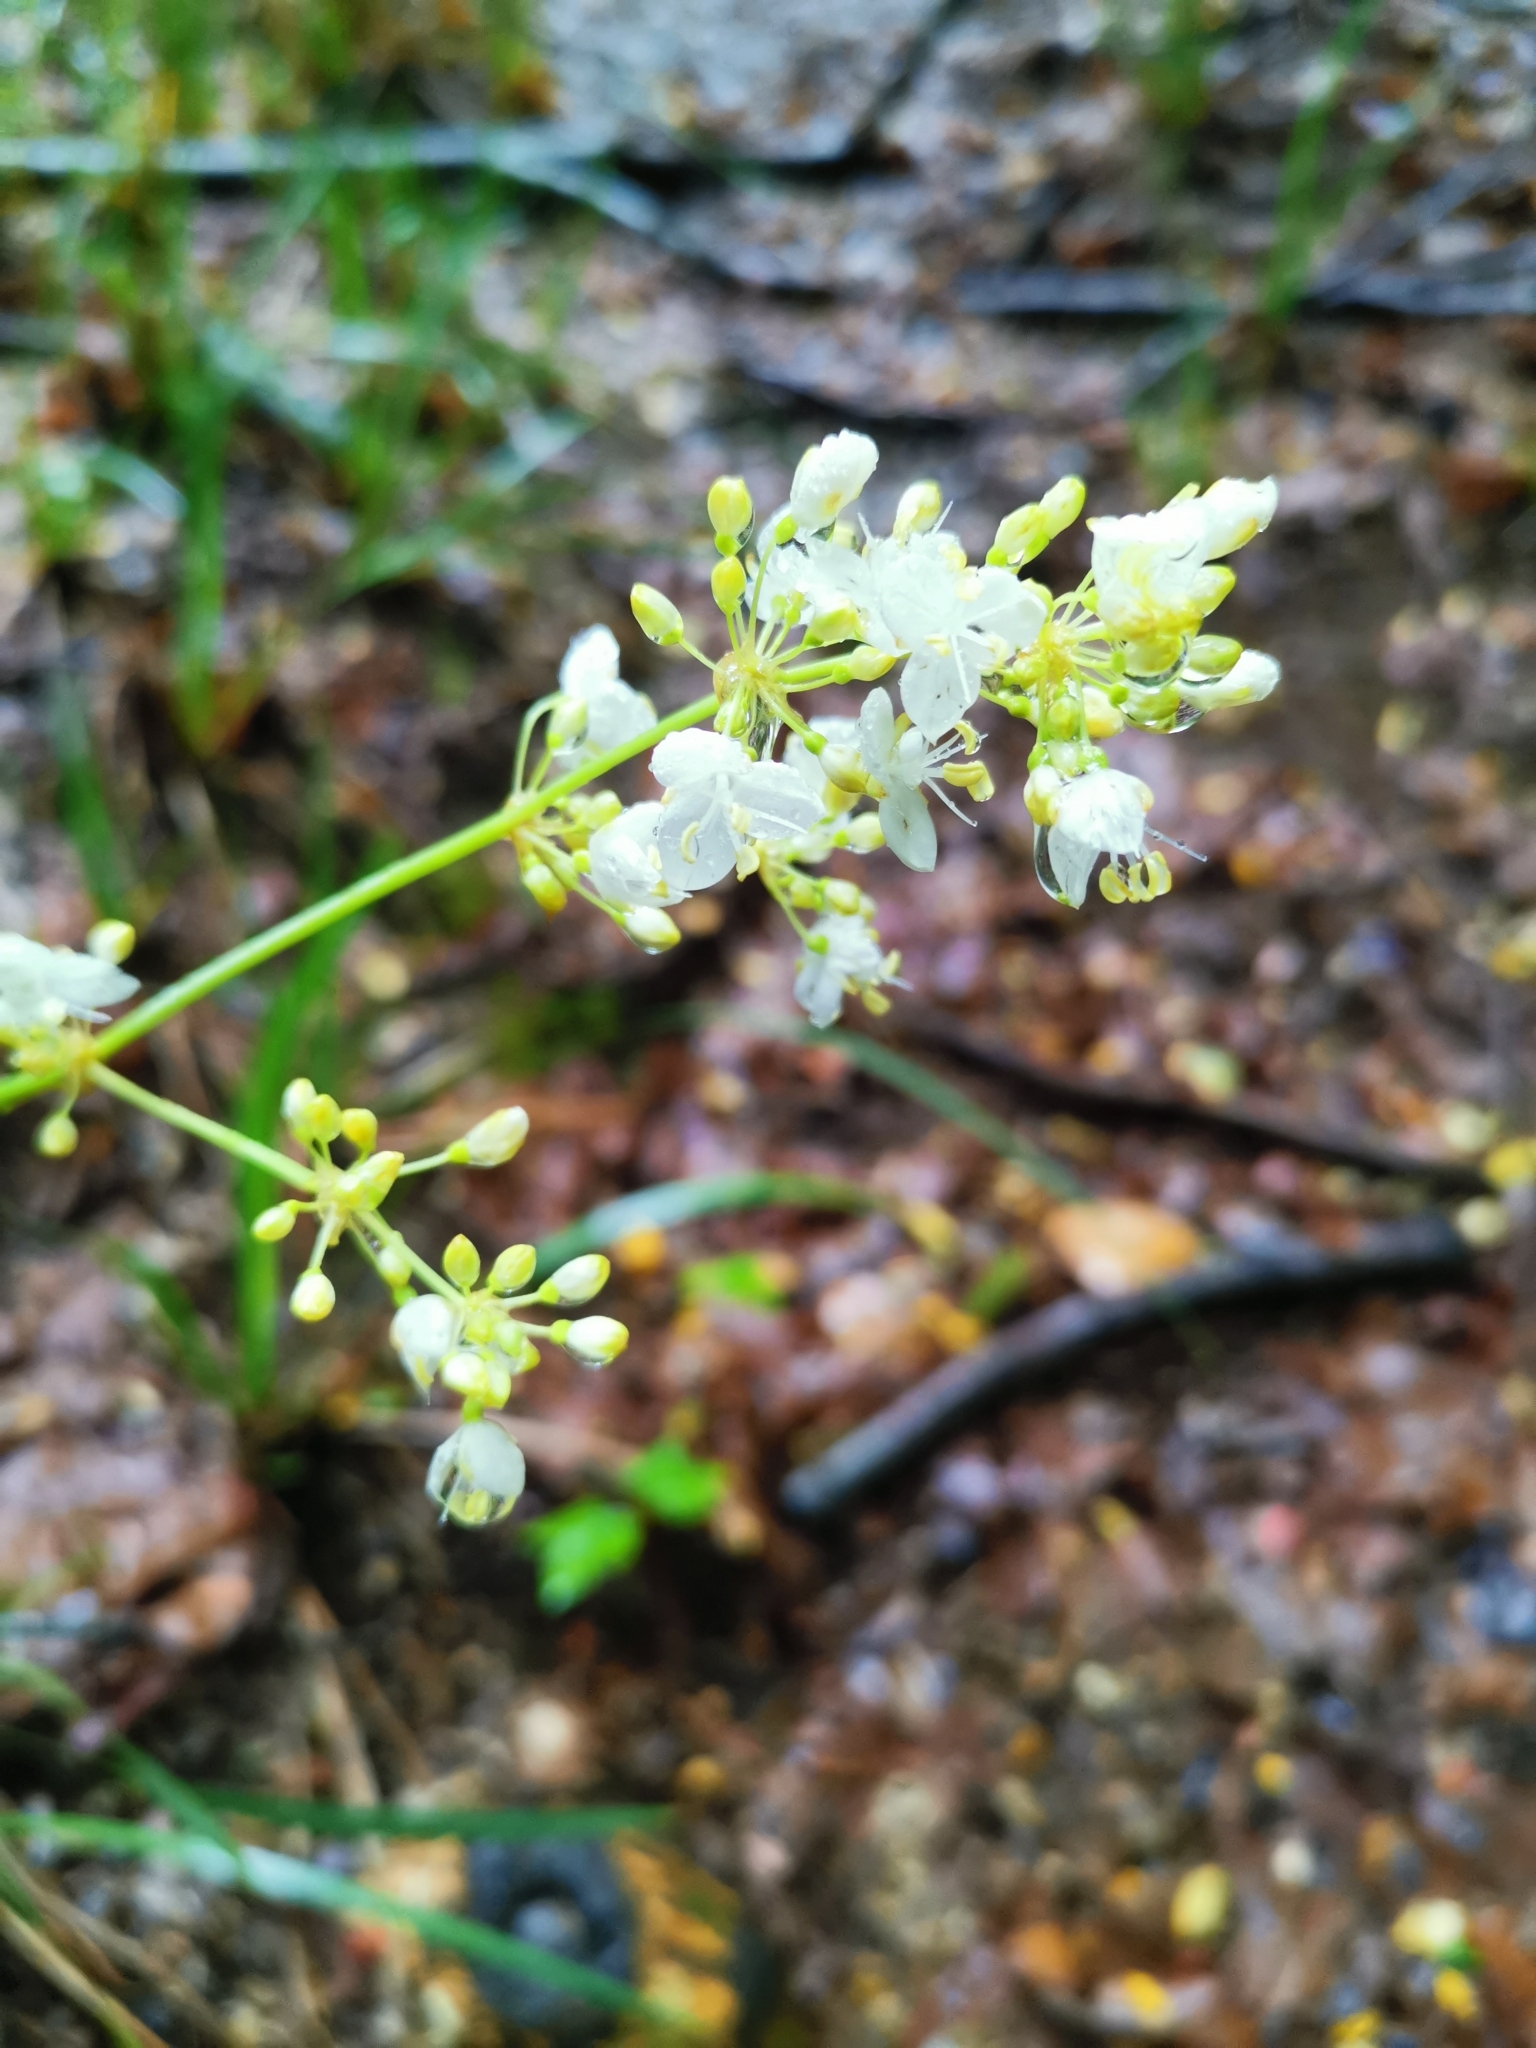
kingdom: Plantae
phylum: Tracheophyta
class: Liliopsida
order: Asparagales
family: Iridaceae
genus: Libertia
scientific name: Libertia tricocca
